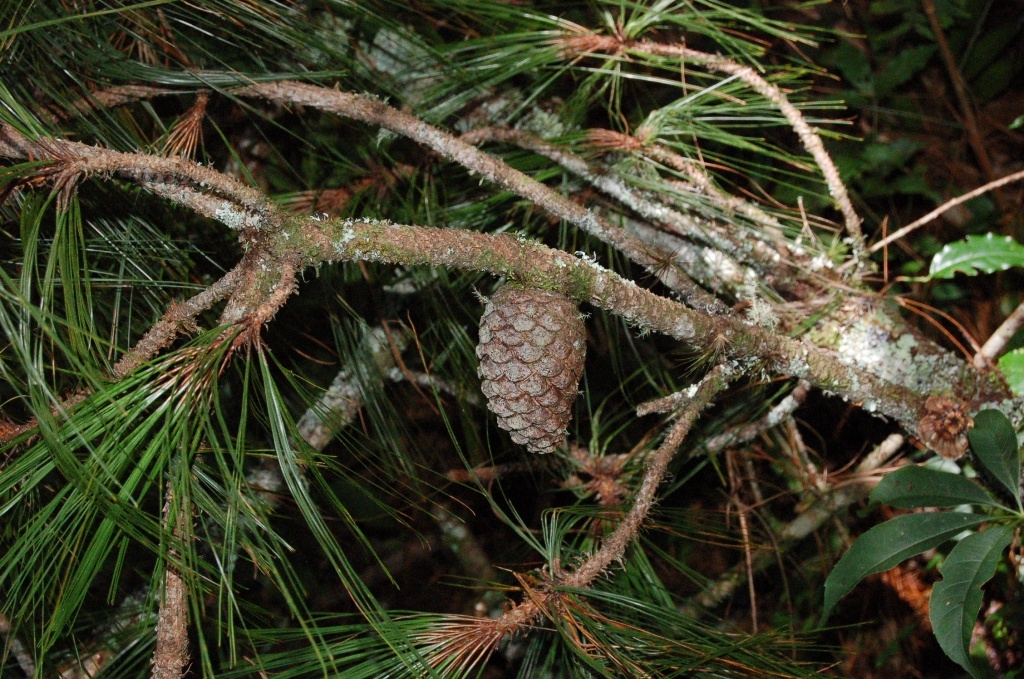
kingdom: Plantae
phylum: Tracheophyta
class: Pinopsida
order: Pinales
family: Pinaceae
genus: Pinus
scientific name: Pinus tecunumanii
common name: Schwerdtfeger's pine
